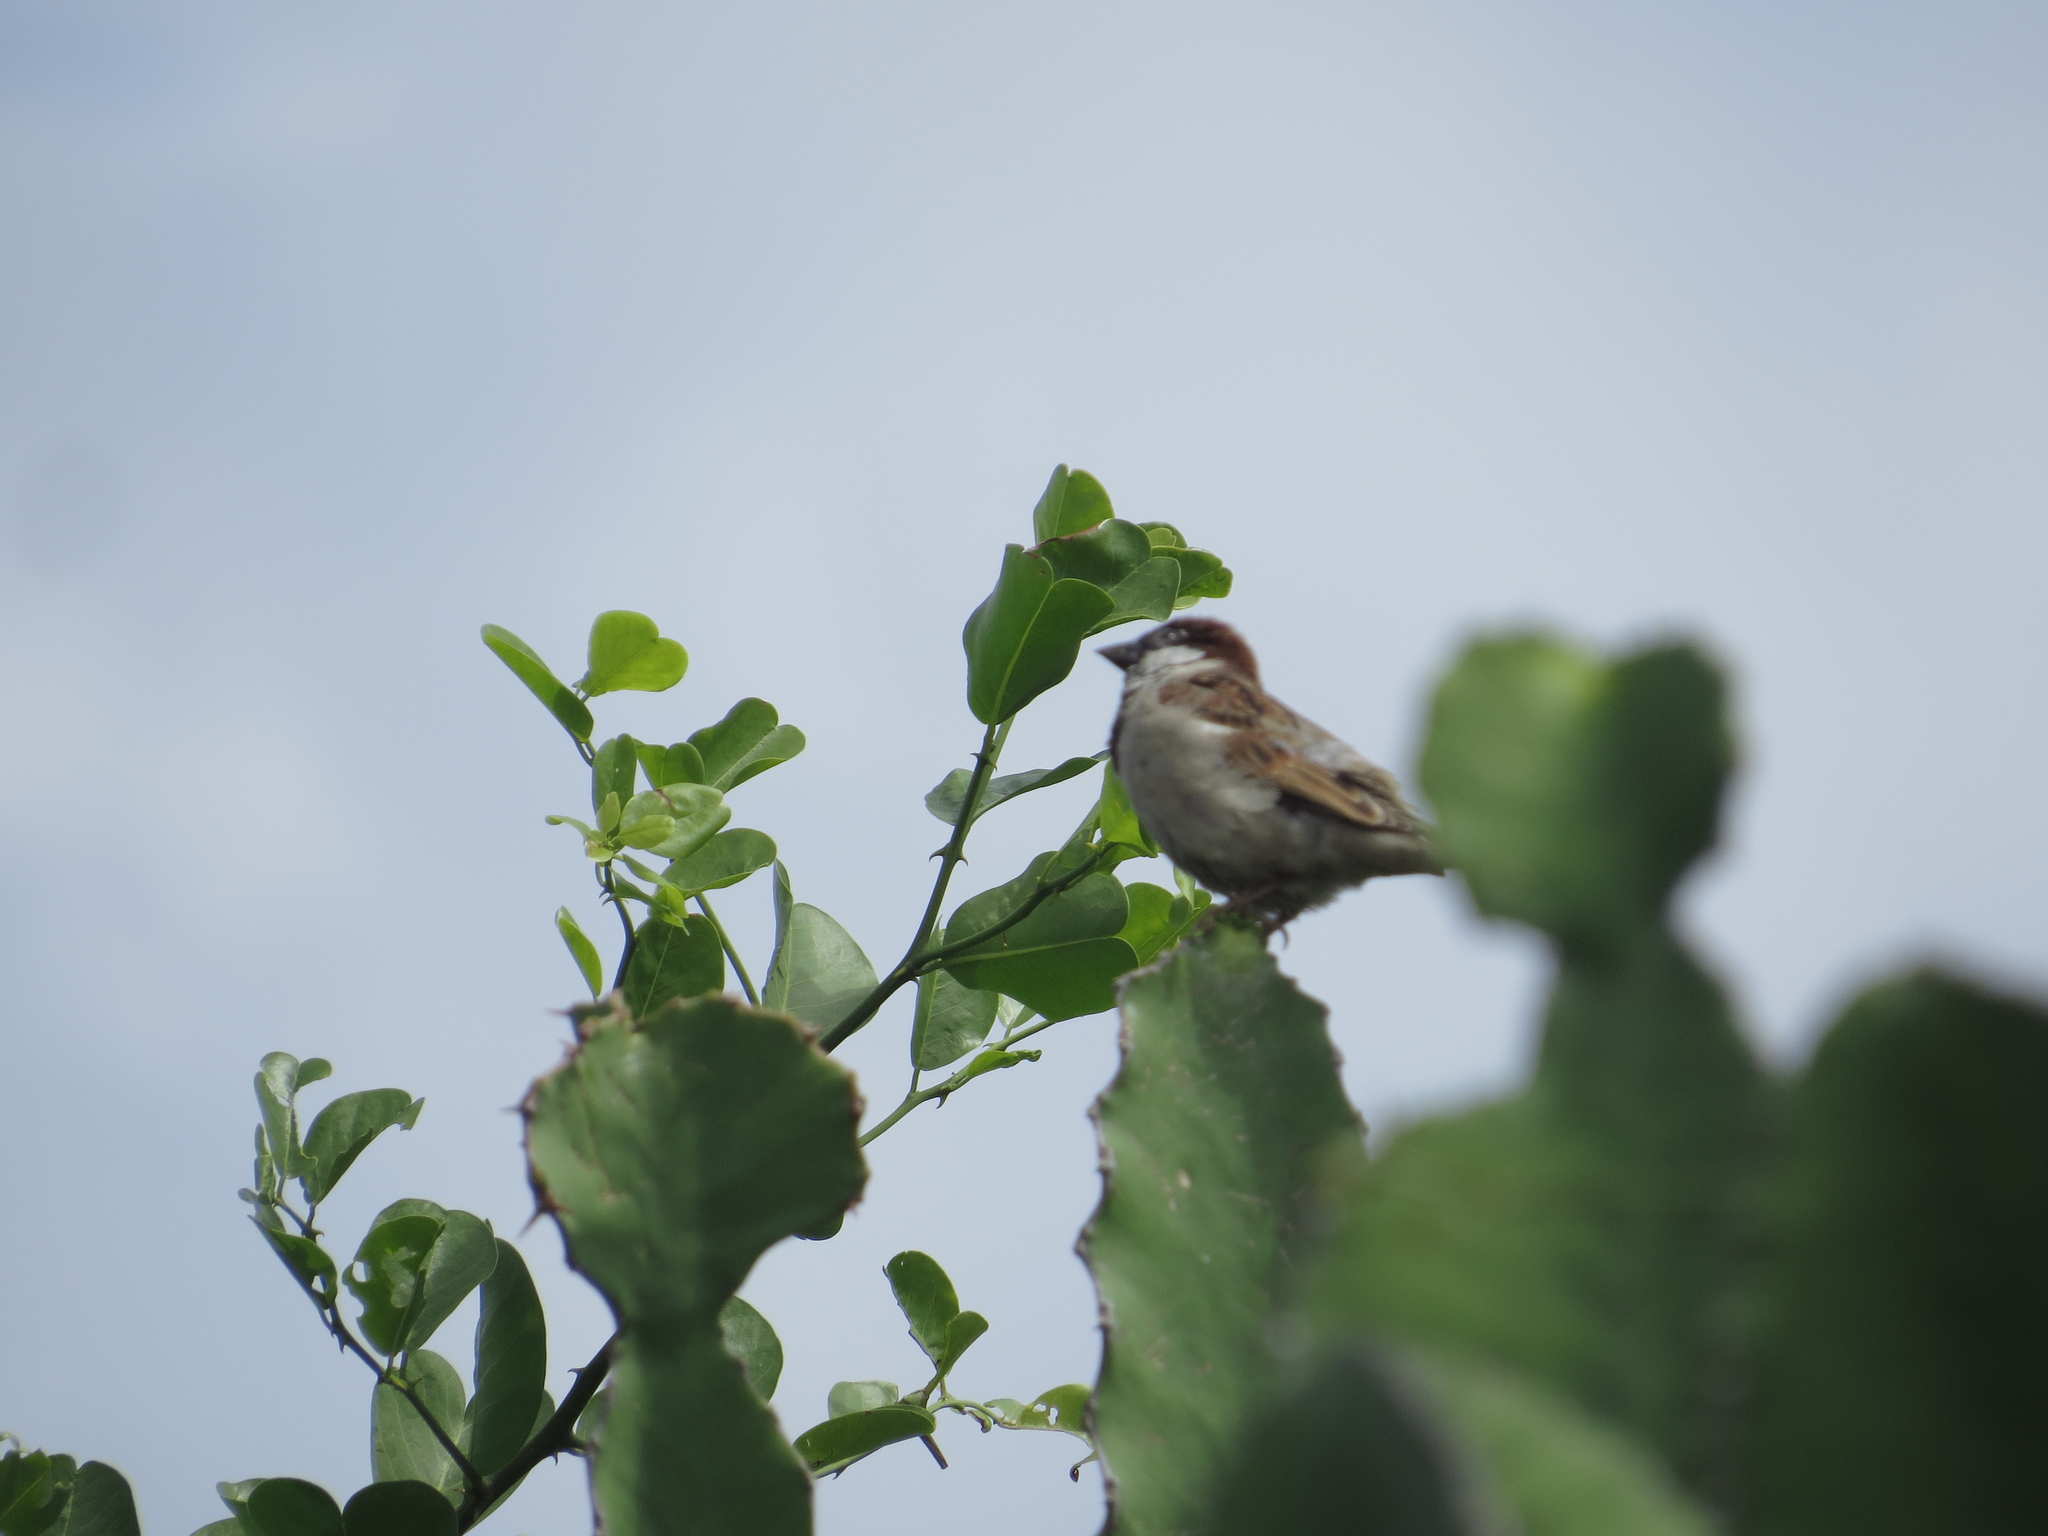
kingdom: Animalia
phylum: Chordata
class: Aves
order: Passeriformes
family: Passeridae
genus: Passer
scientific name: Passer domesticus
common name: House sparrow
